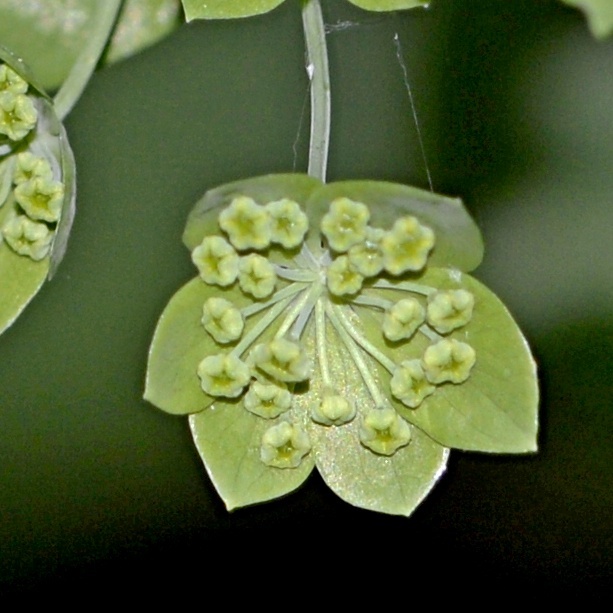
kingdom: Plantae
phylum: Tracheophyta
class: Magnoliopsida
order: Apiales
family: Apiaceae
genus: Bupleurum
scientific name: Bupleurum longifolium
